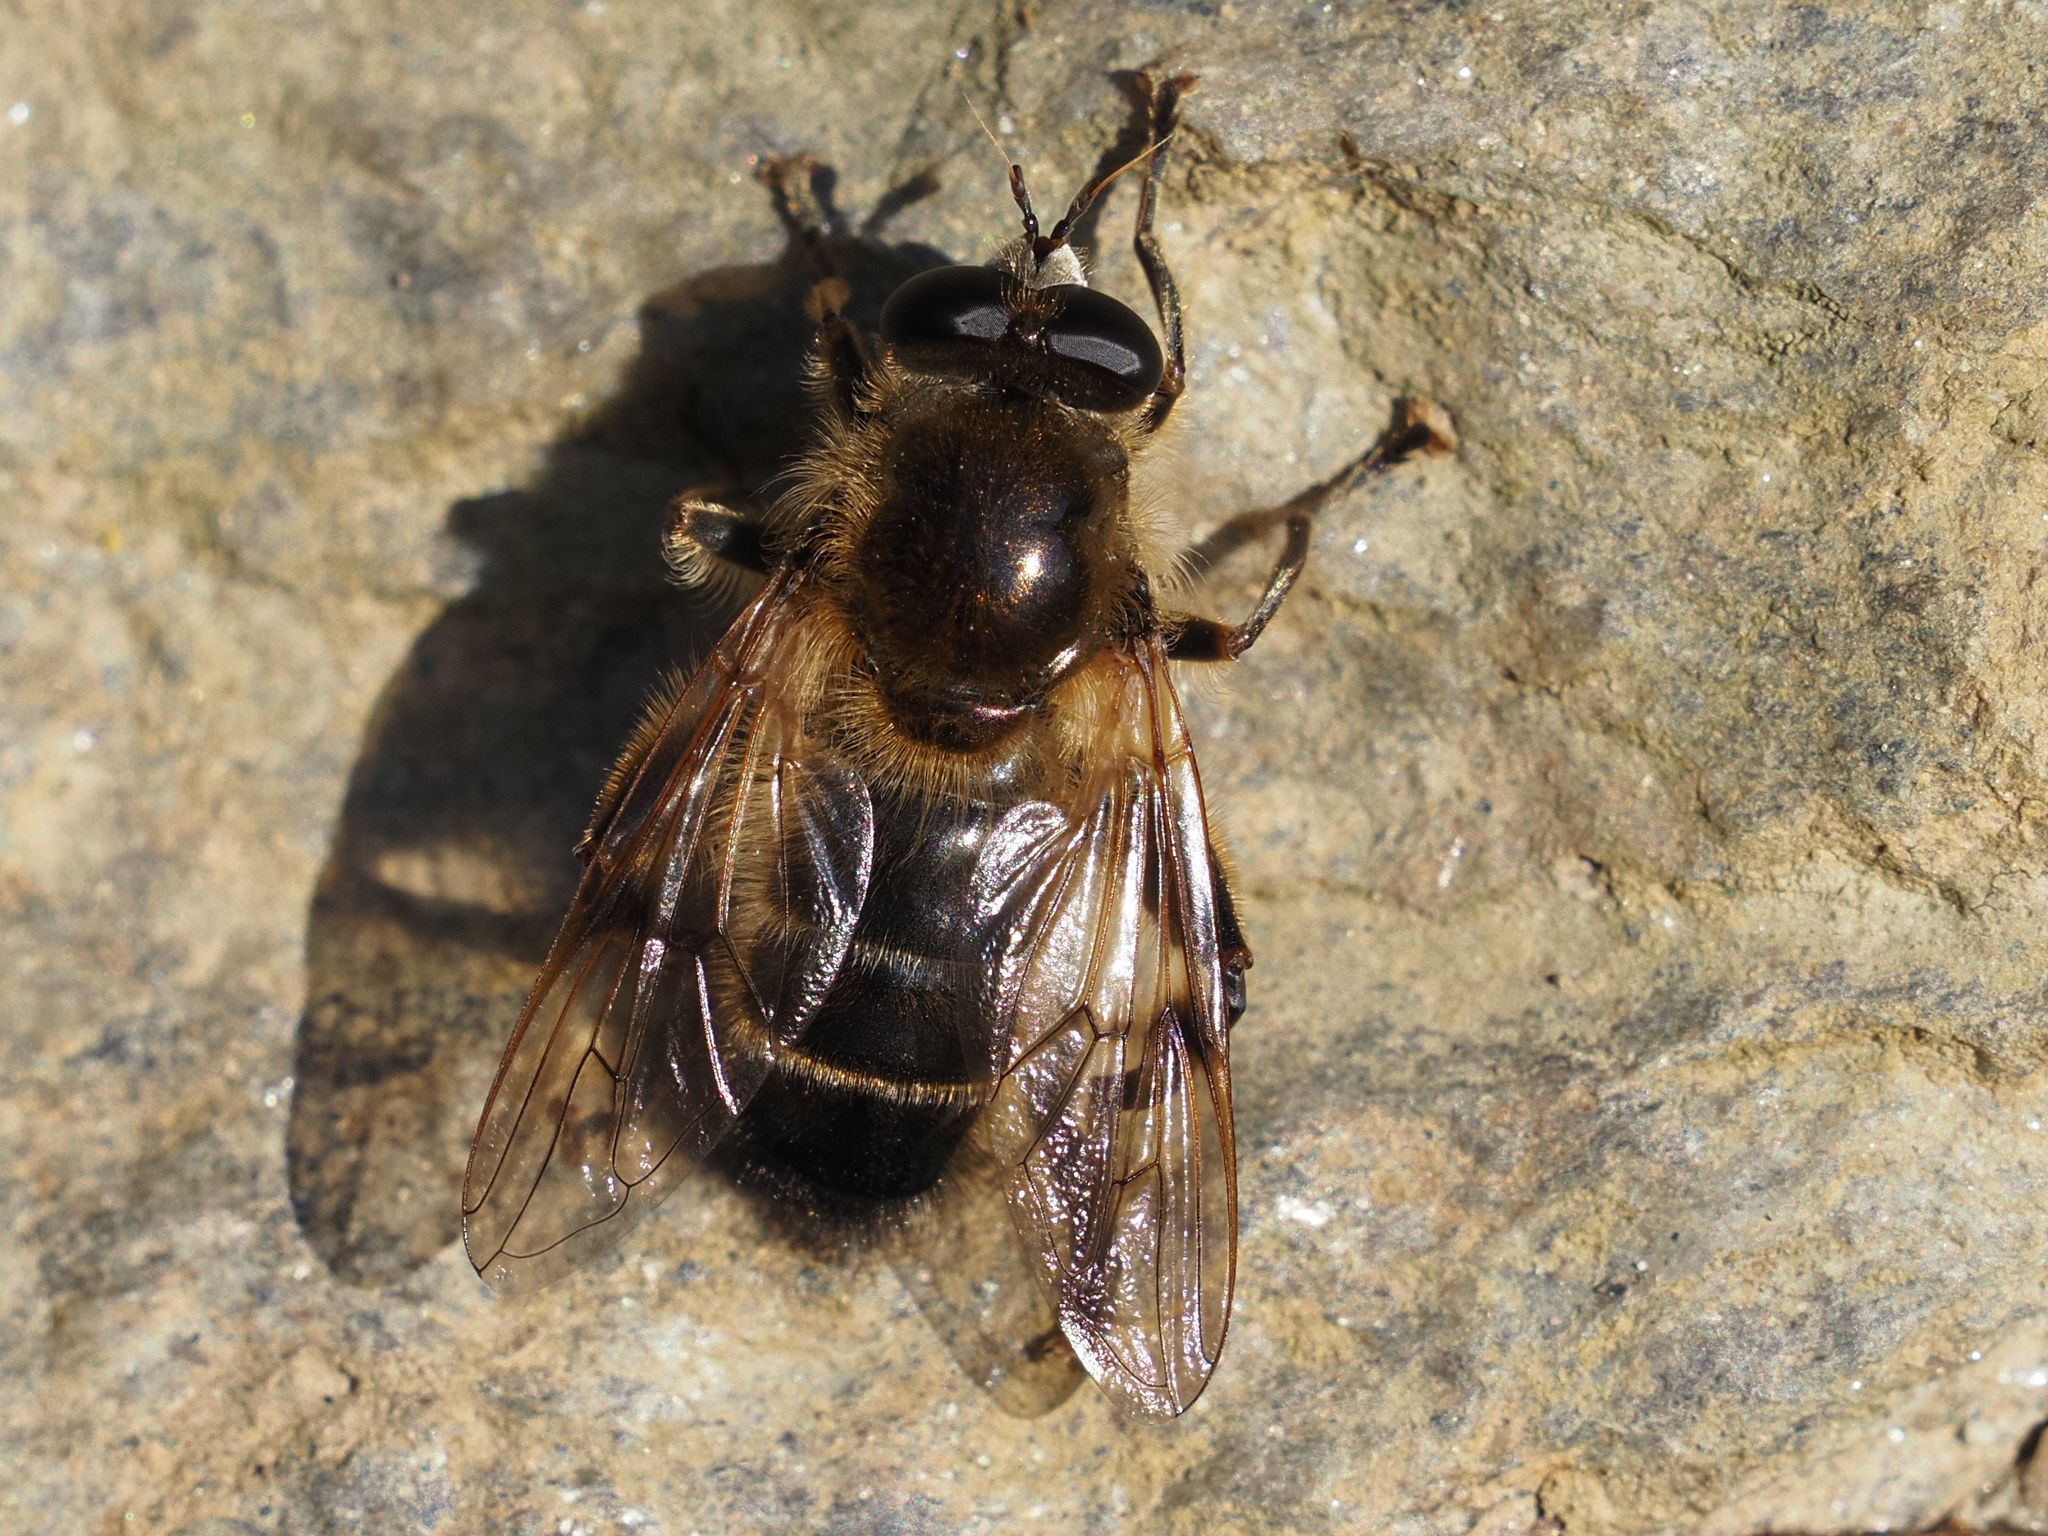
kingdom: Animalia
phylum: Arthropoda
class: Insecta
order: Diptera
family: Syrphidae
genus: Brachypalpus
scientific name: Brachypalpus valgus
